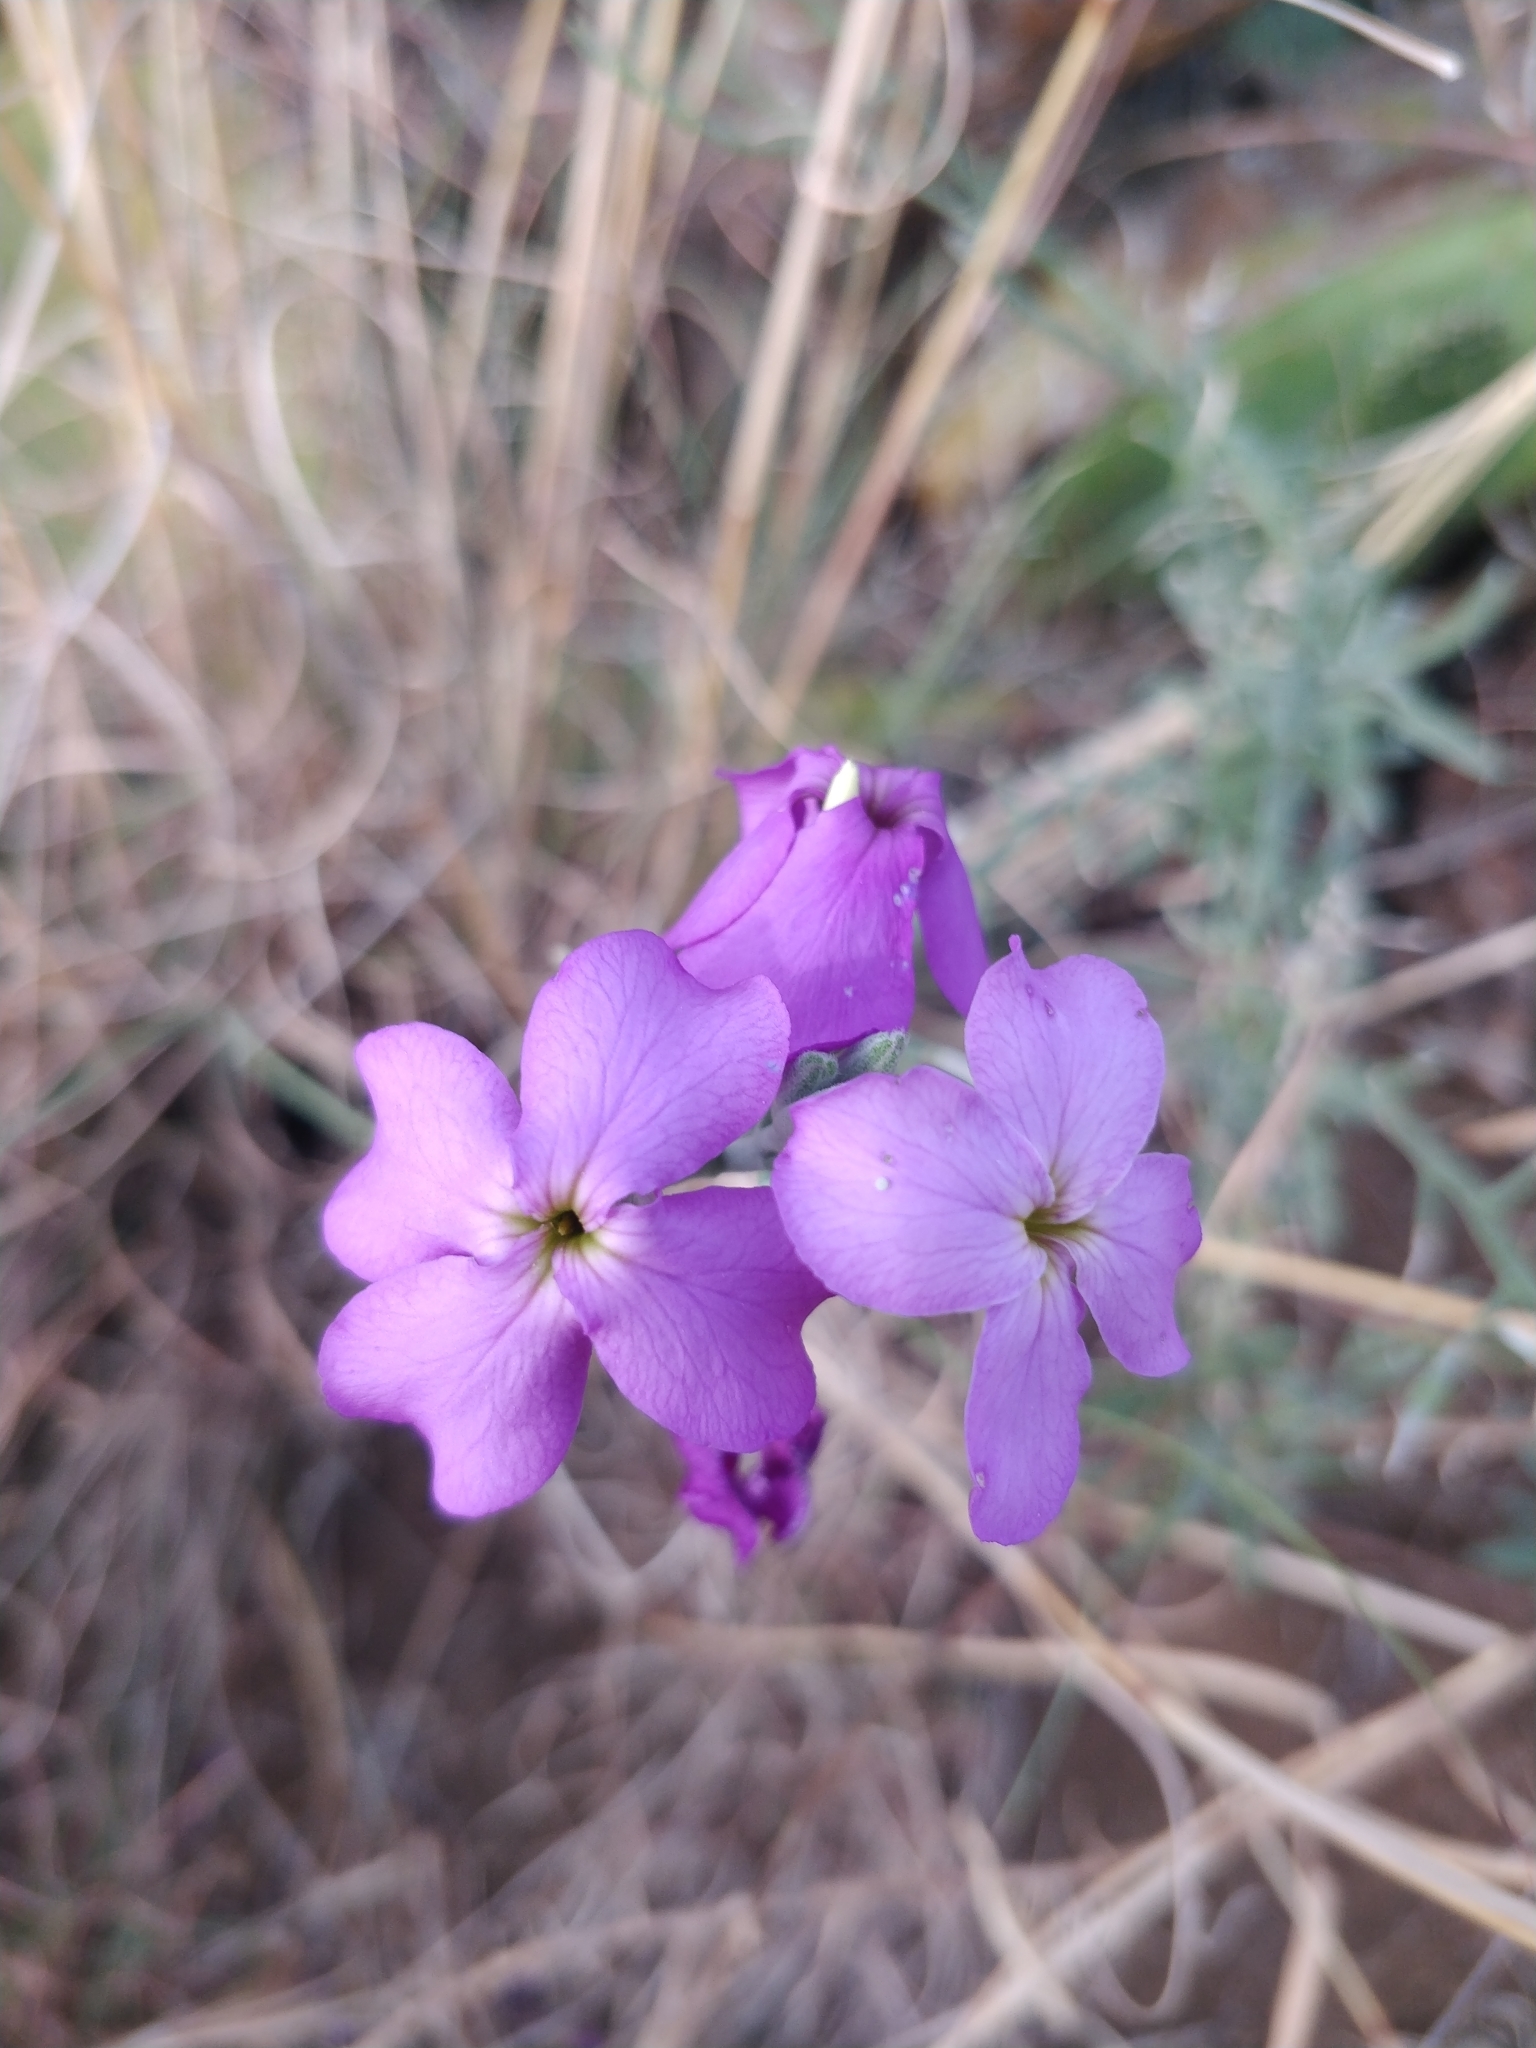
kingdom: Plantae
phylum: Tracheophyta
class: Magnoliopsida
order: Brassicales
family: Brassicaceae
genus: Matthiola
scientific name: Matthiola maderensis
